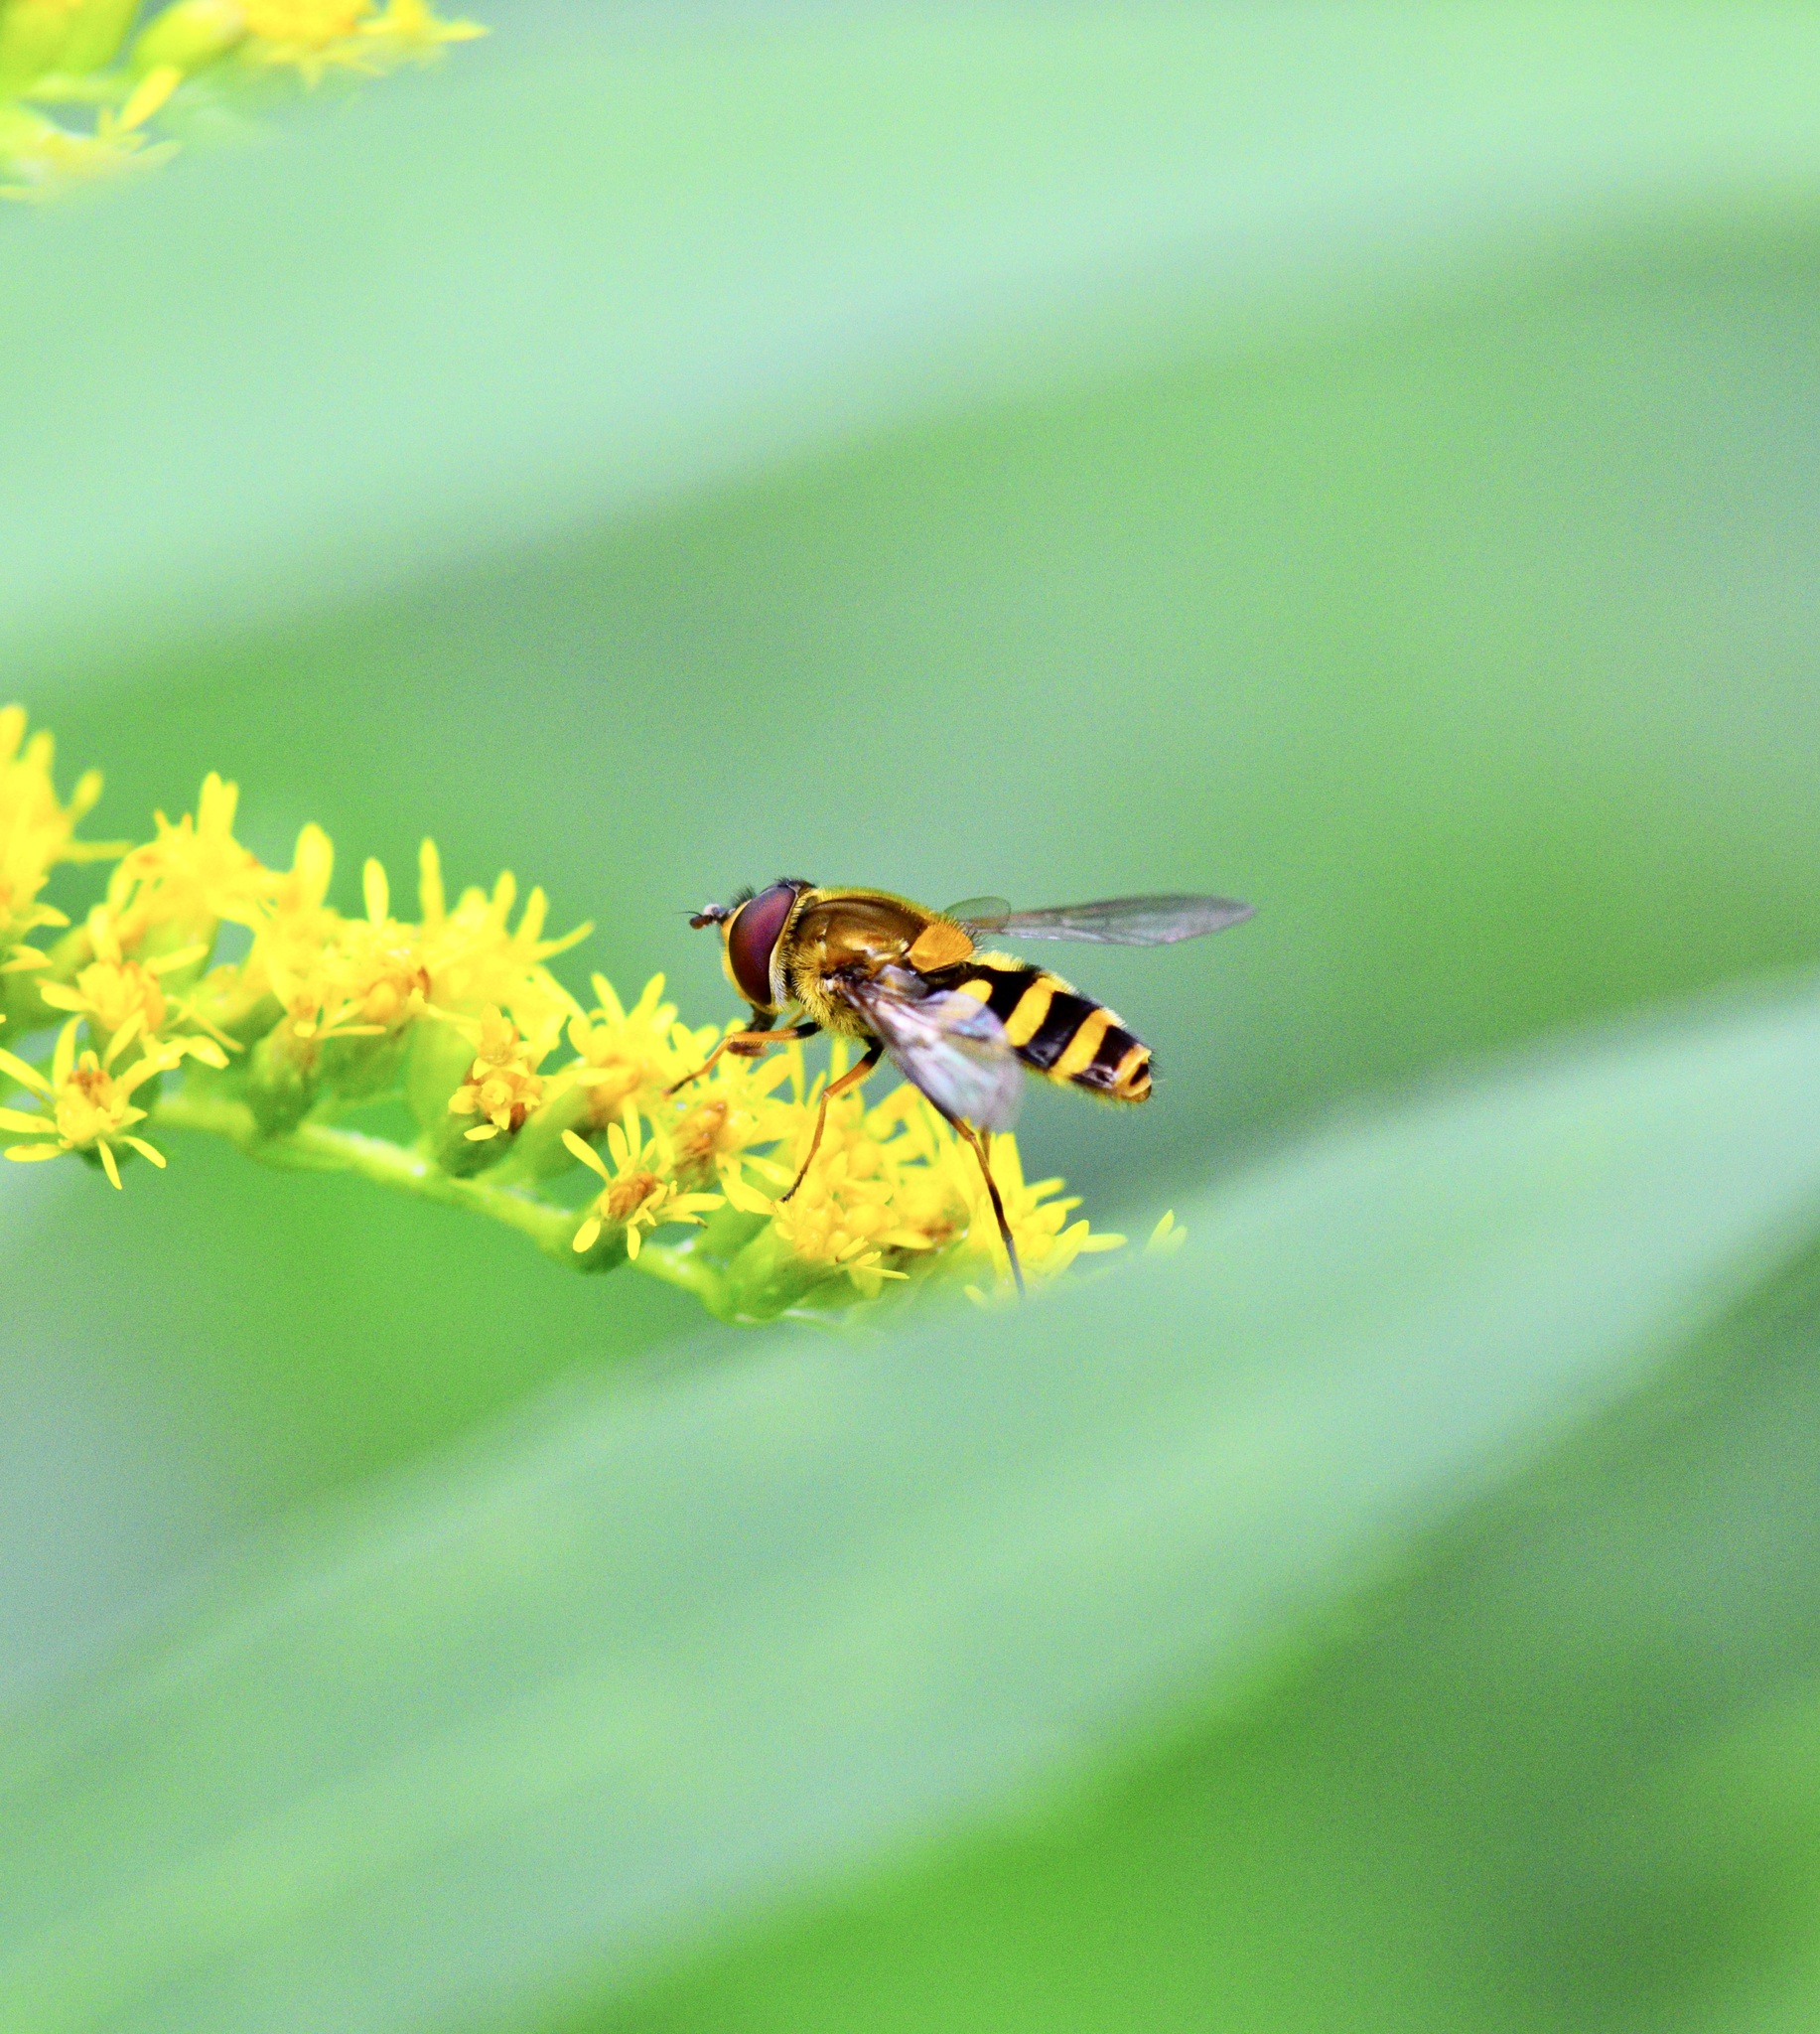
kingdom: Animalia
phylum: Arthropoda
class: Insecta
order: Diptera
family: Syrphidae
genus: Syrphus
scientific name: Syrphus
